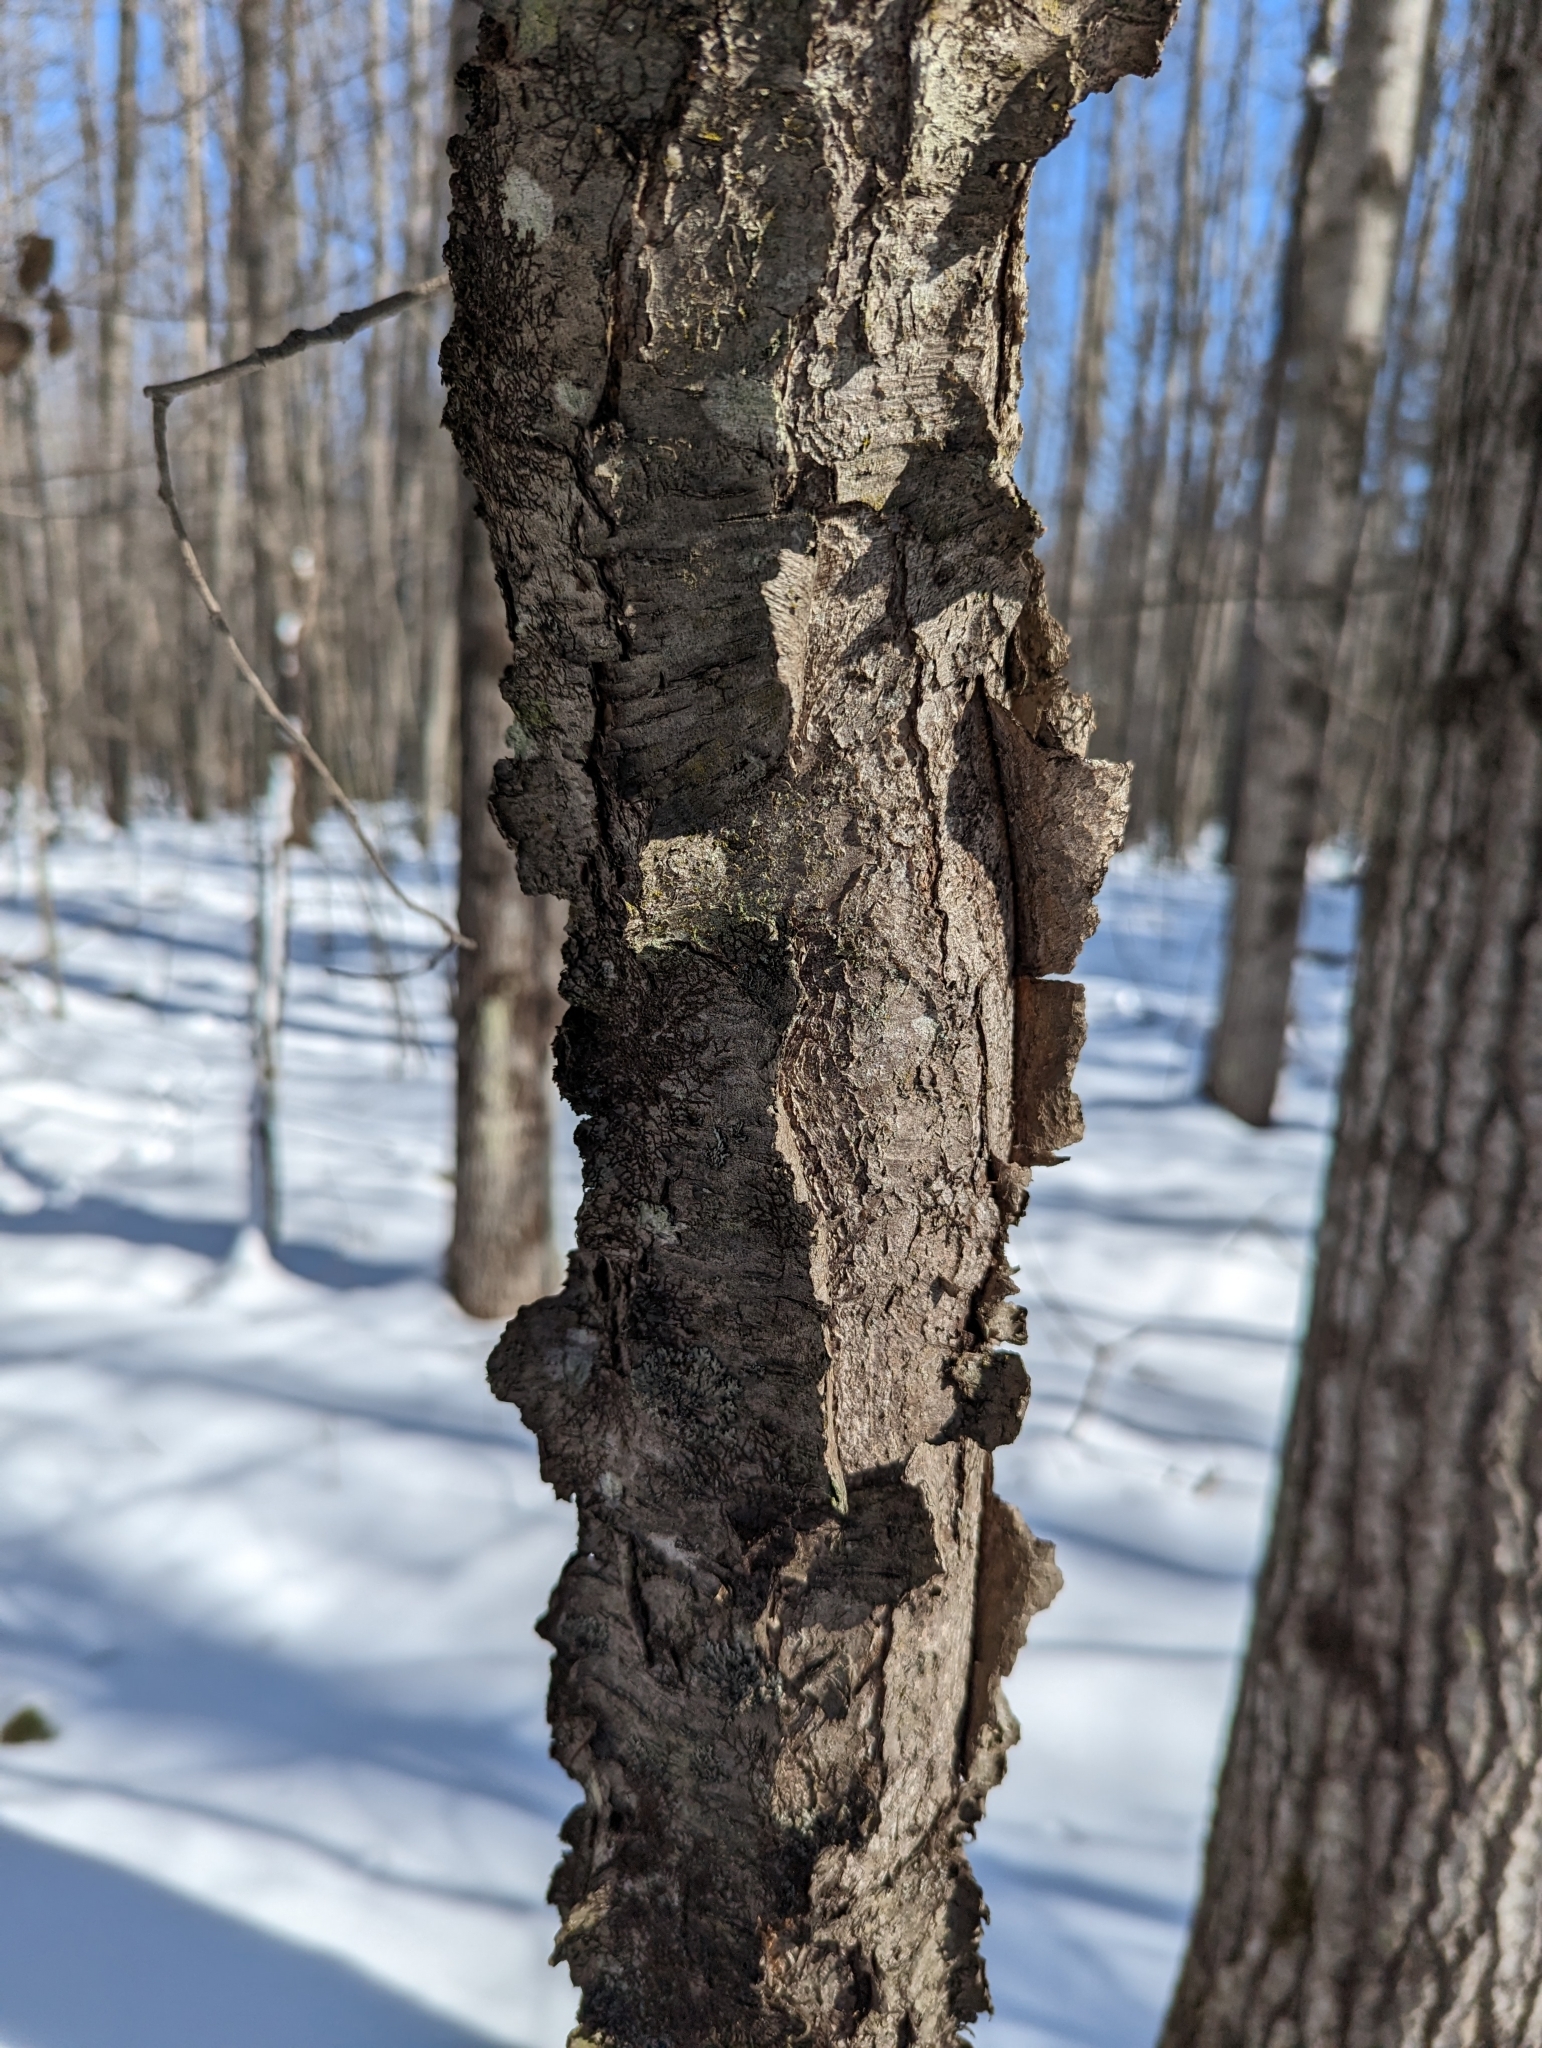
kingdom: Plantae
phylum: Tracheophyta
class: Magnoliopsida
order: Rosales
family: Rosaceae
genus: Prunus
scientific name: Prunus serotina
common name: Black cherry
